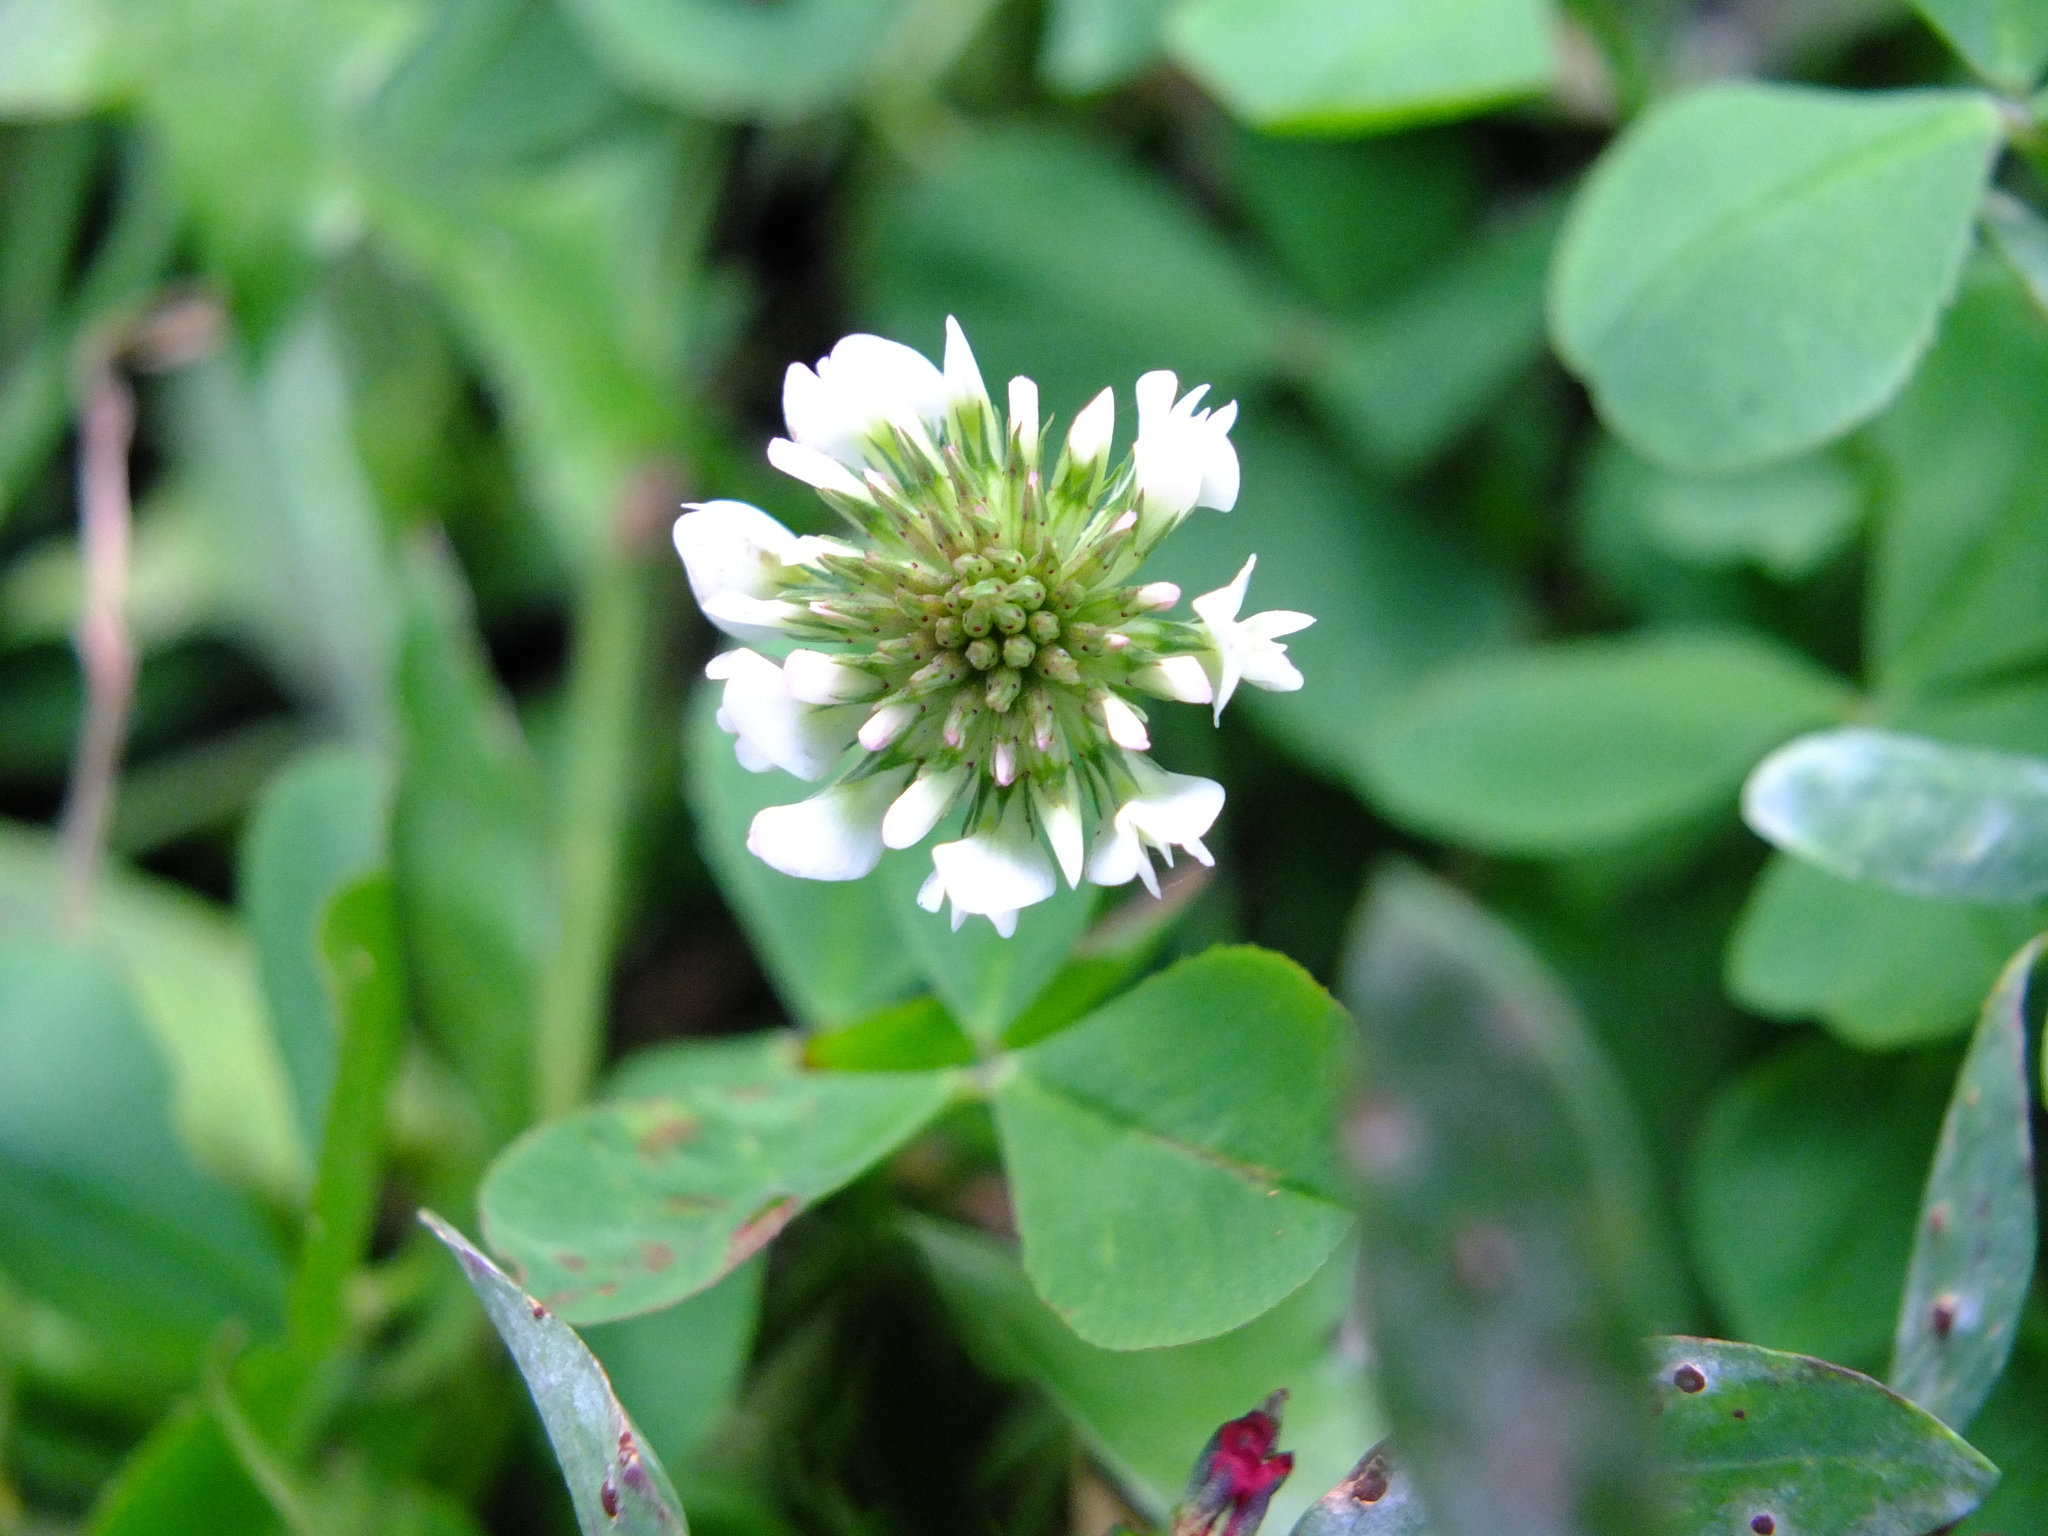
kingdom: Plantae
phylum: Tracheophyta
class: Magnoliopsida
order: Fabales
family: Fabaceae
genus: Trifolium
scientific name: Trifolium repens
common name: White clover
